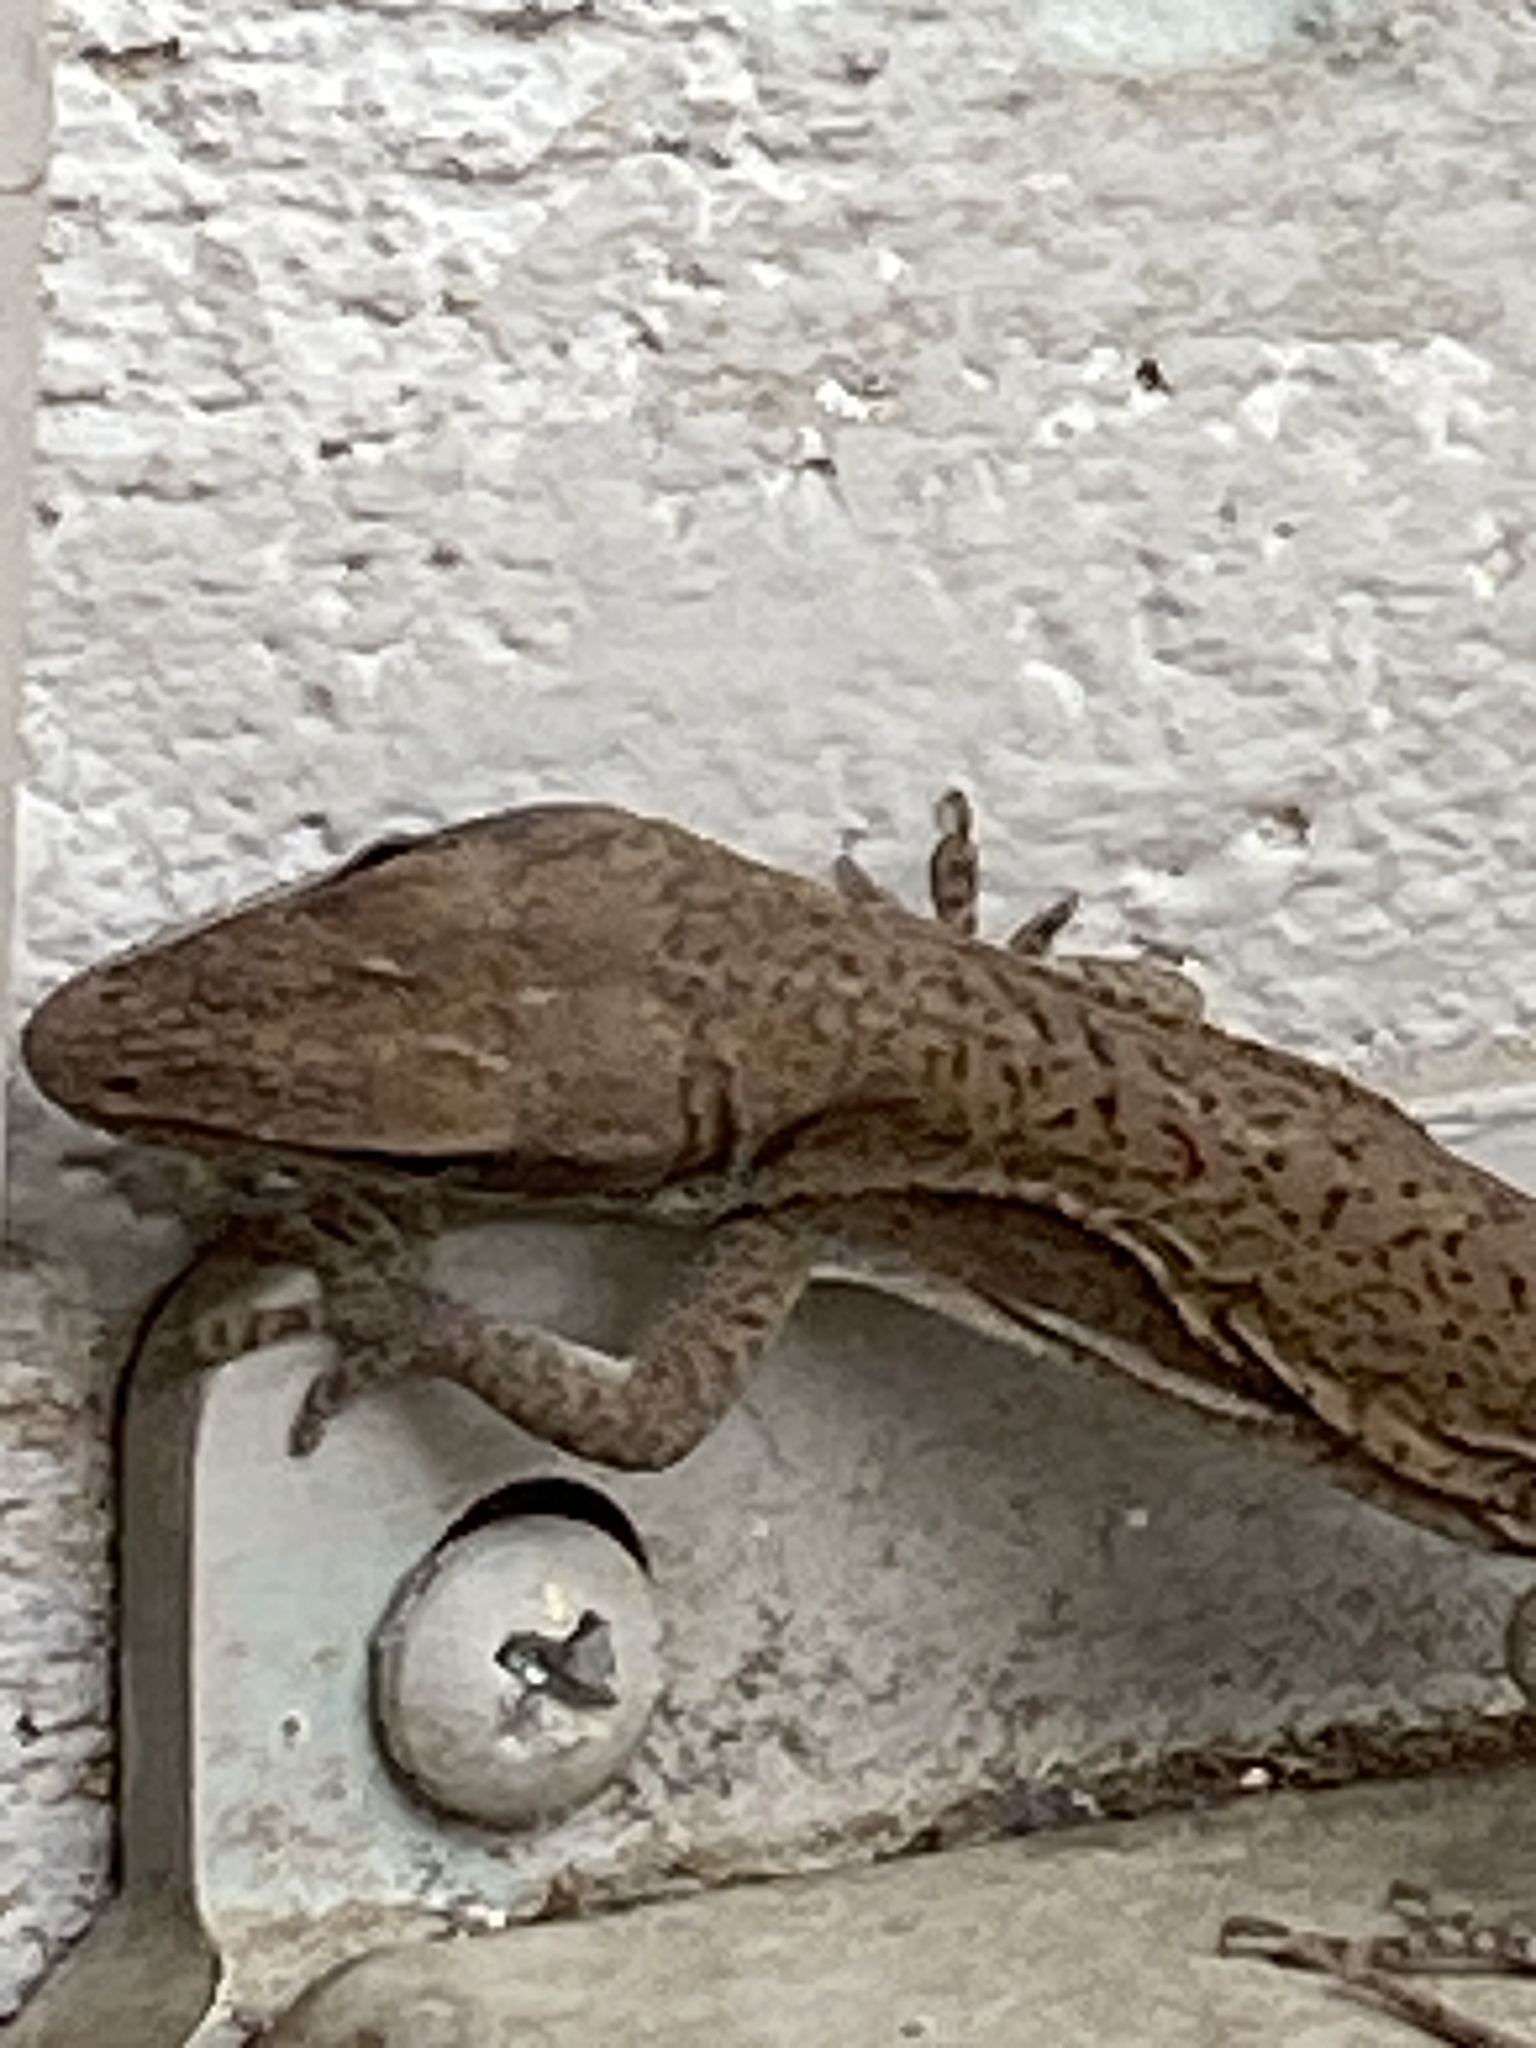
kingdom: Animalia
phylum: Chordata
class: Squamata
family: Dactyloidae
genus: Anolis
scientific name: Anolis carolinensis
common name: Green anole
